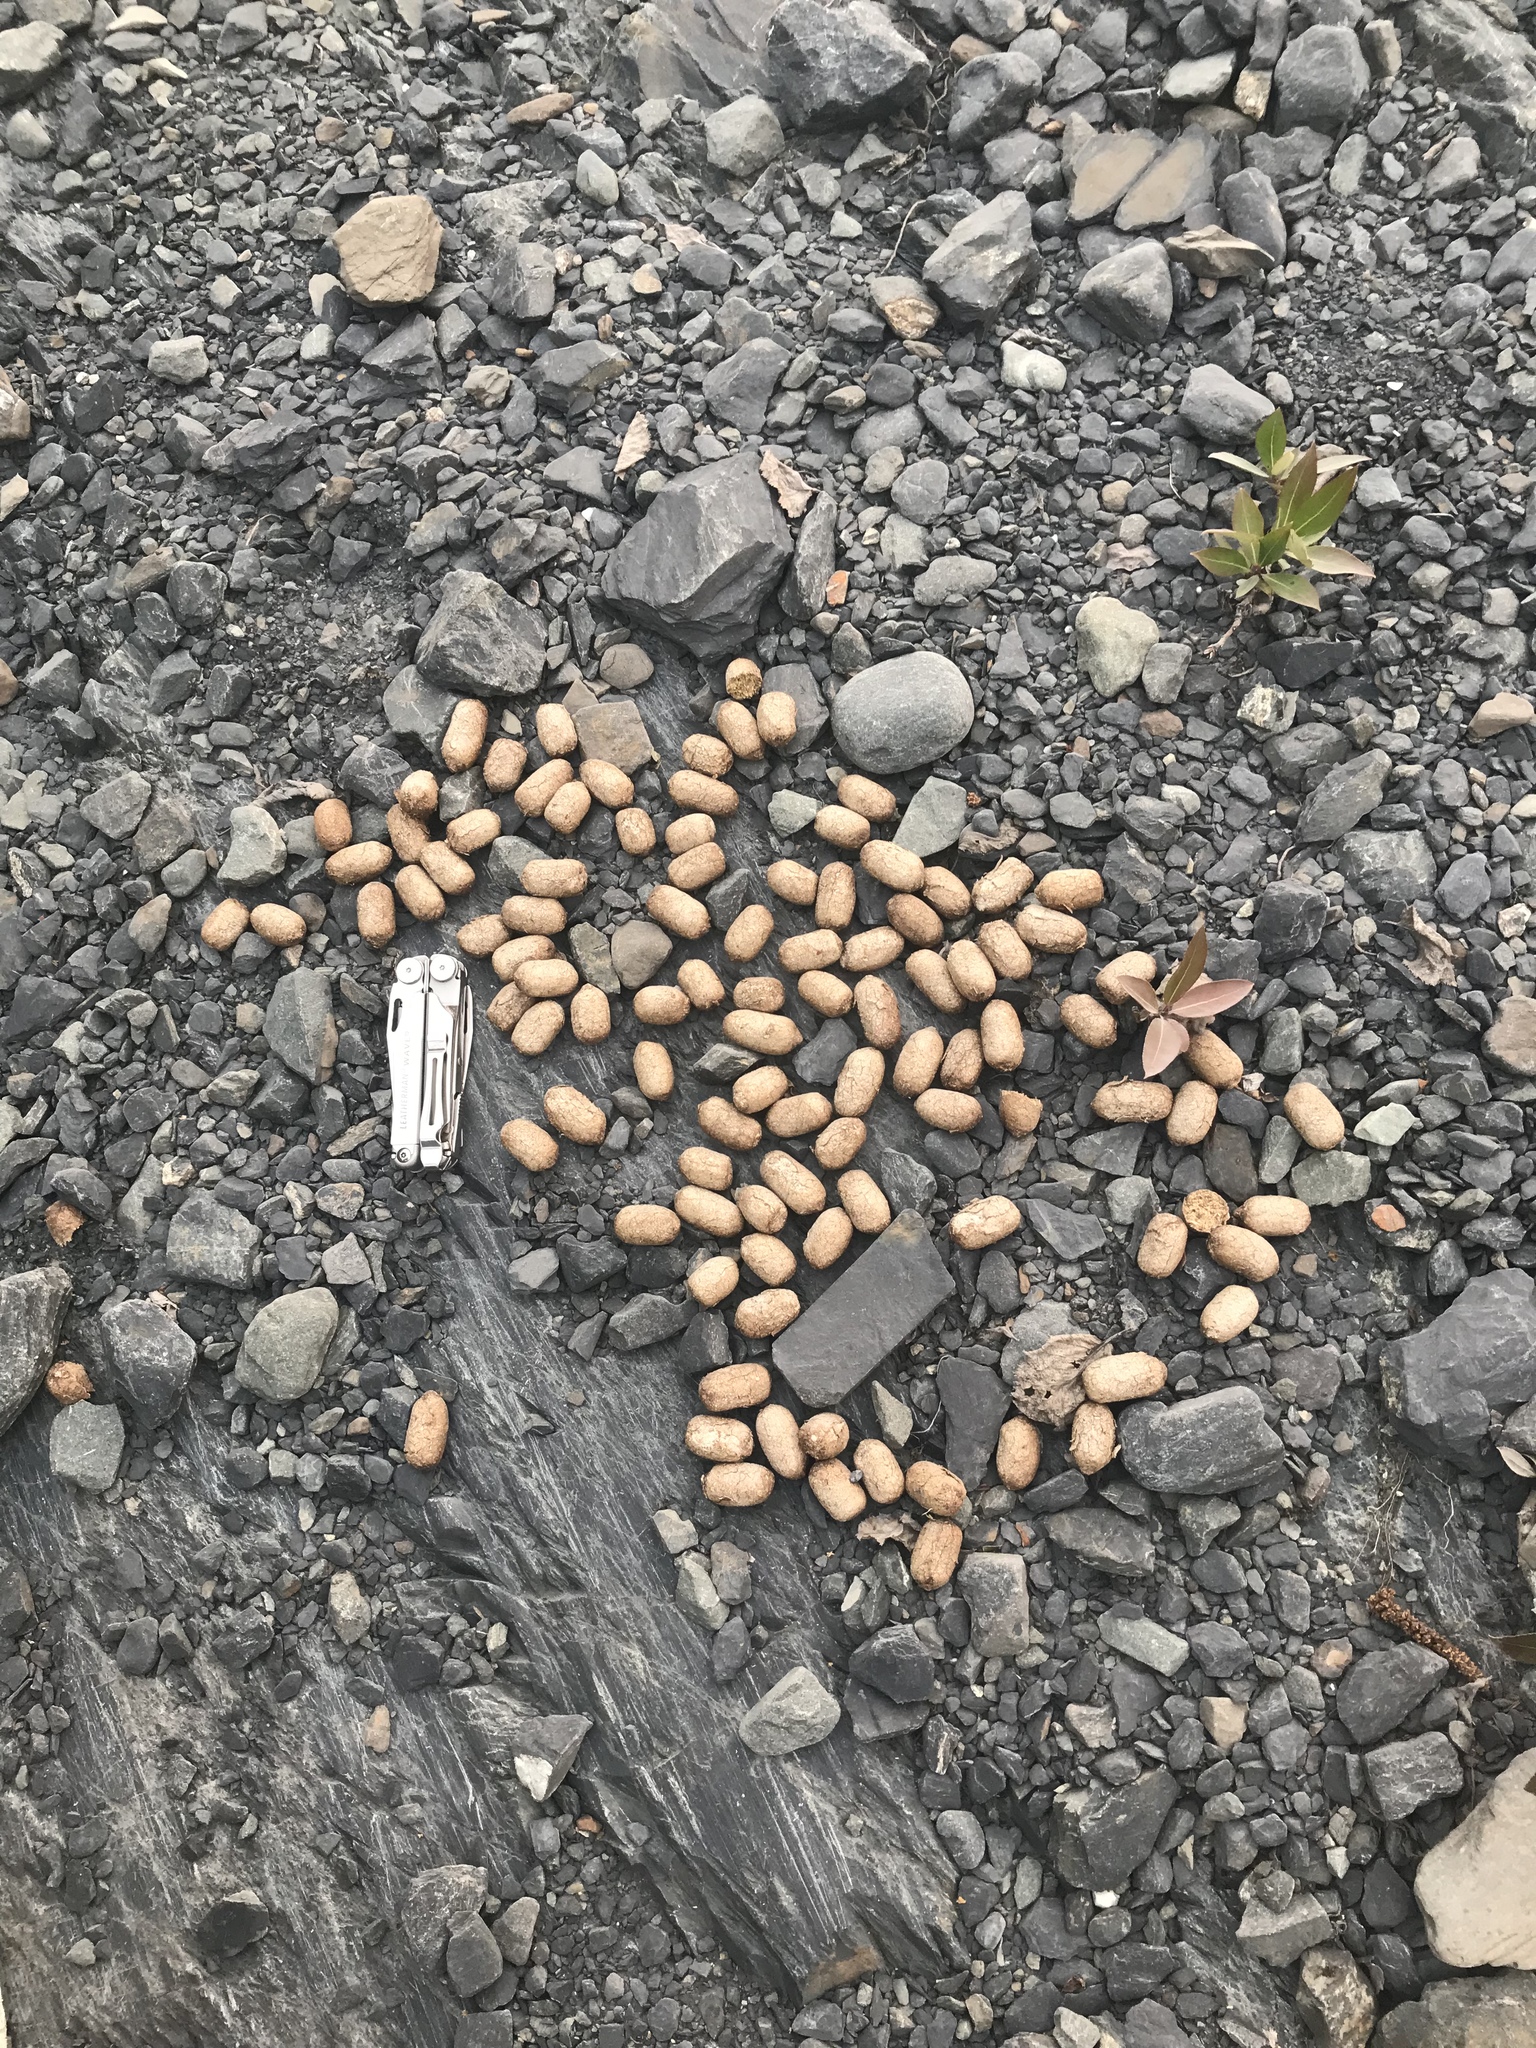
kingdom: Animalia
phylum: Chordata
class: Mammalia
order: Artiodactyla
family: Cervidae
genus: Alces
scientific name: Alces alces
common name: Moose
